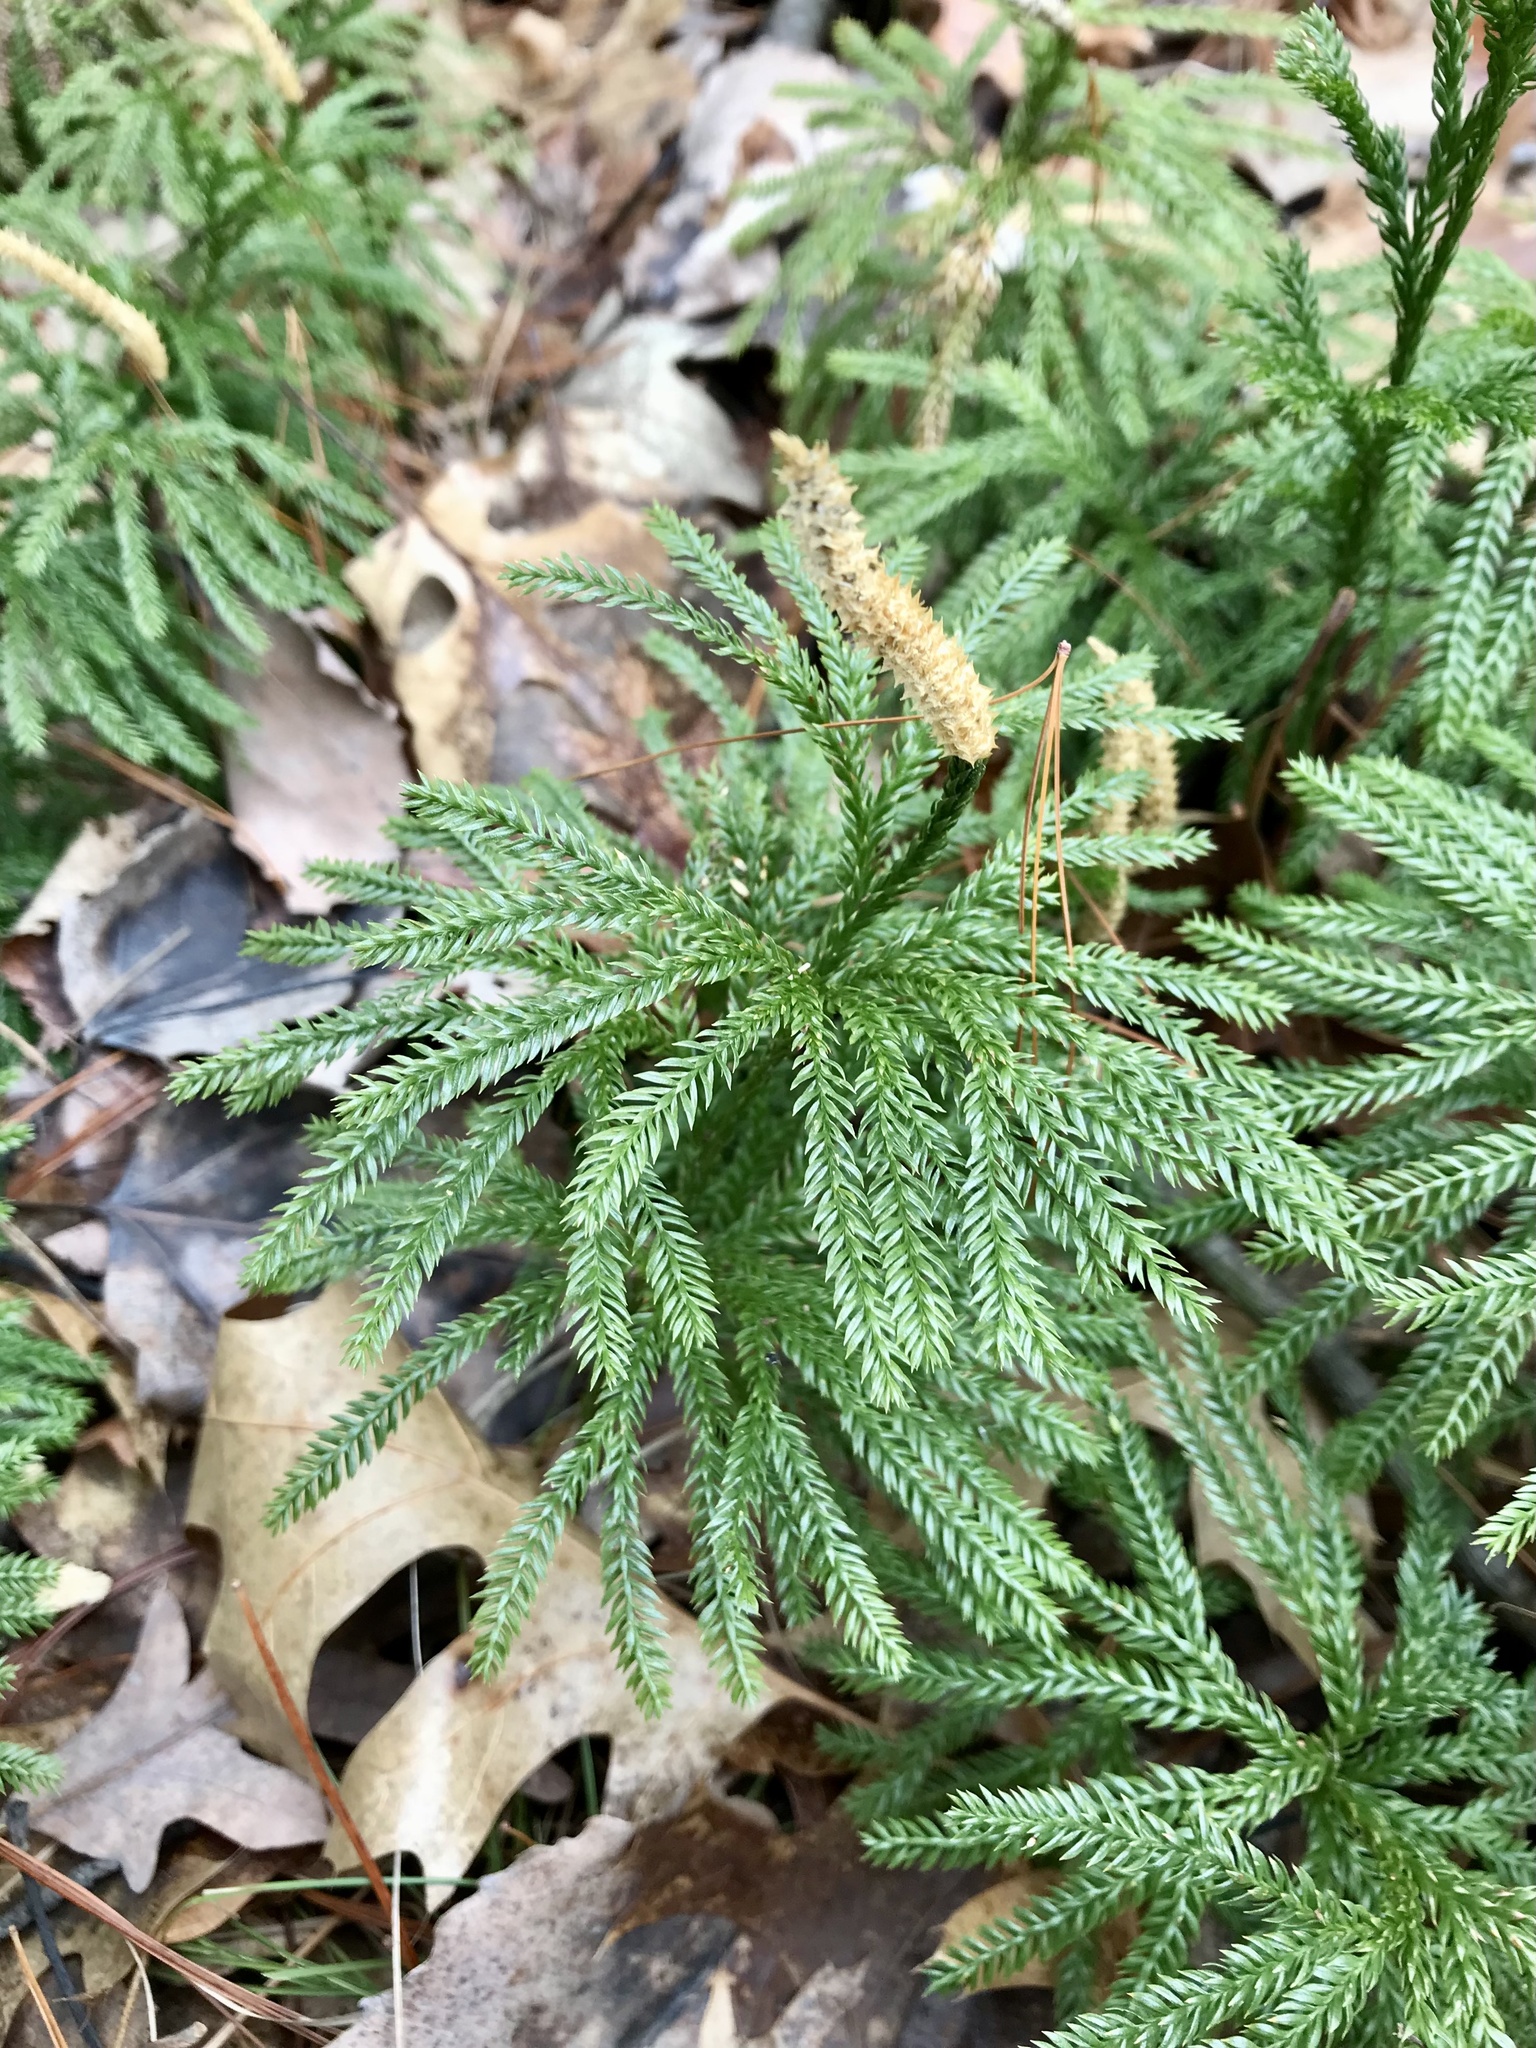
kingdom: Plantae
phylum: Tracheophyta
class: Lycopodiopsida
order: Lycopodiales
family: Lycopodiaceae
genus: Dendrolycopodium
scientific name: Dendrolycopodium obscurum
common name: Common ground-pine
